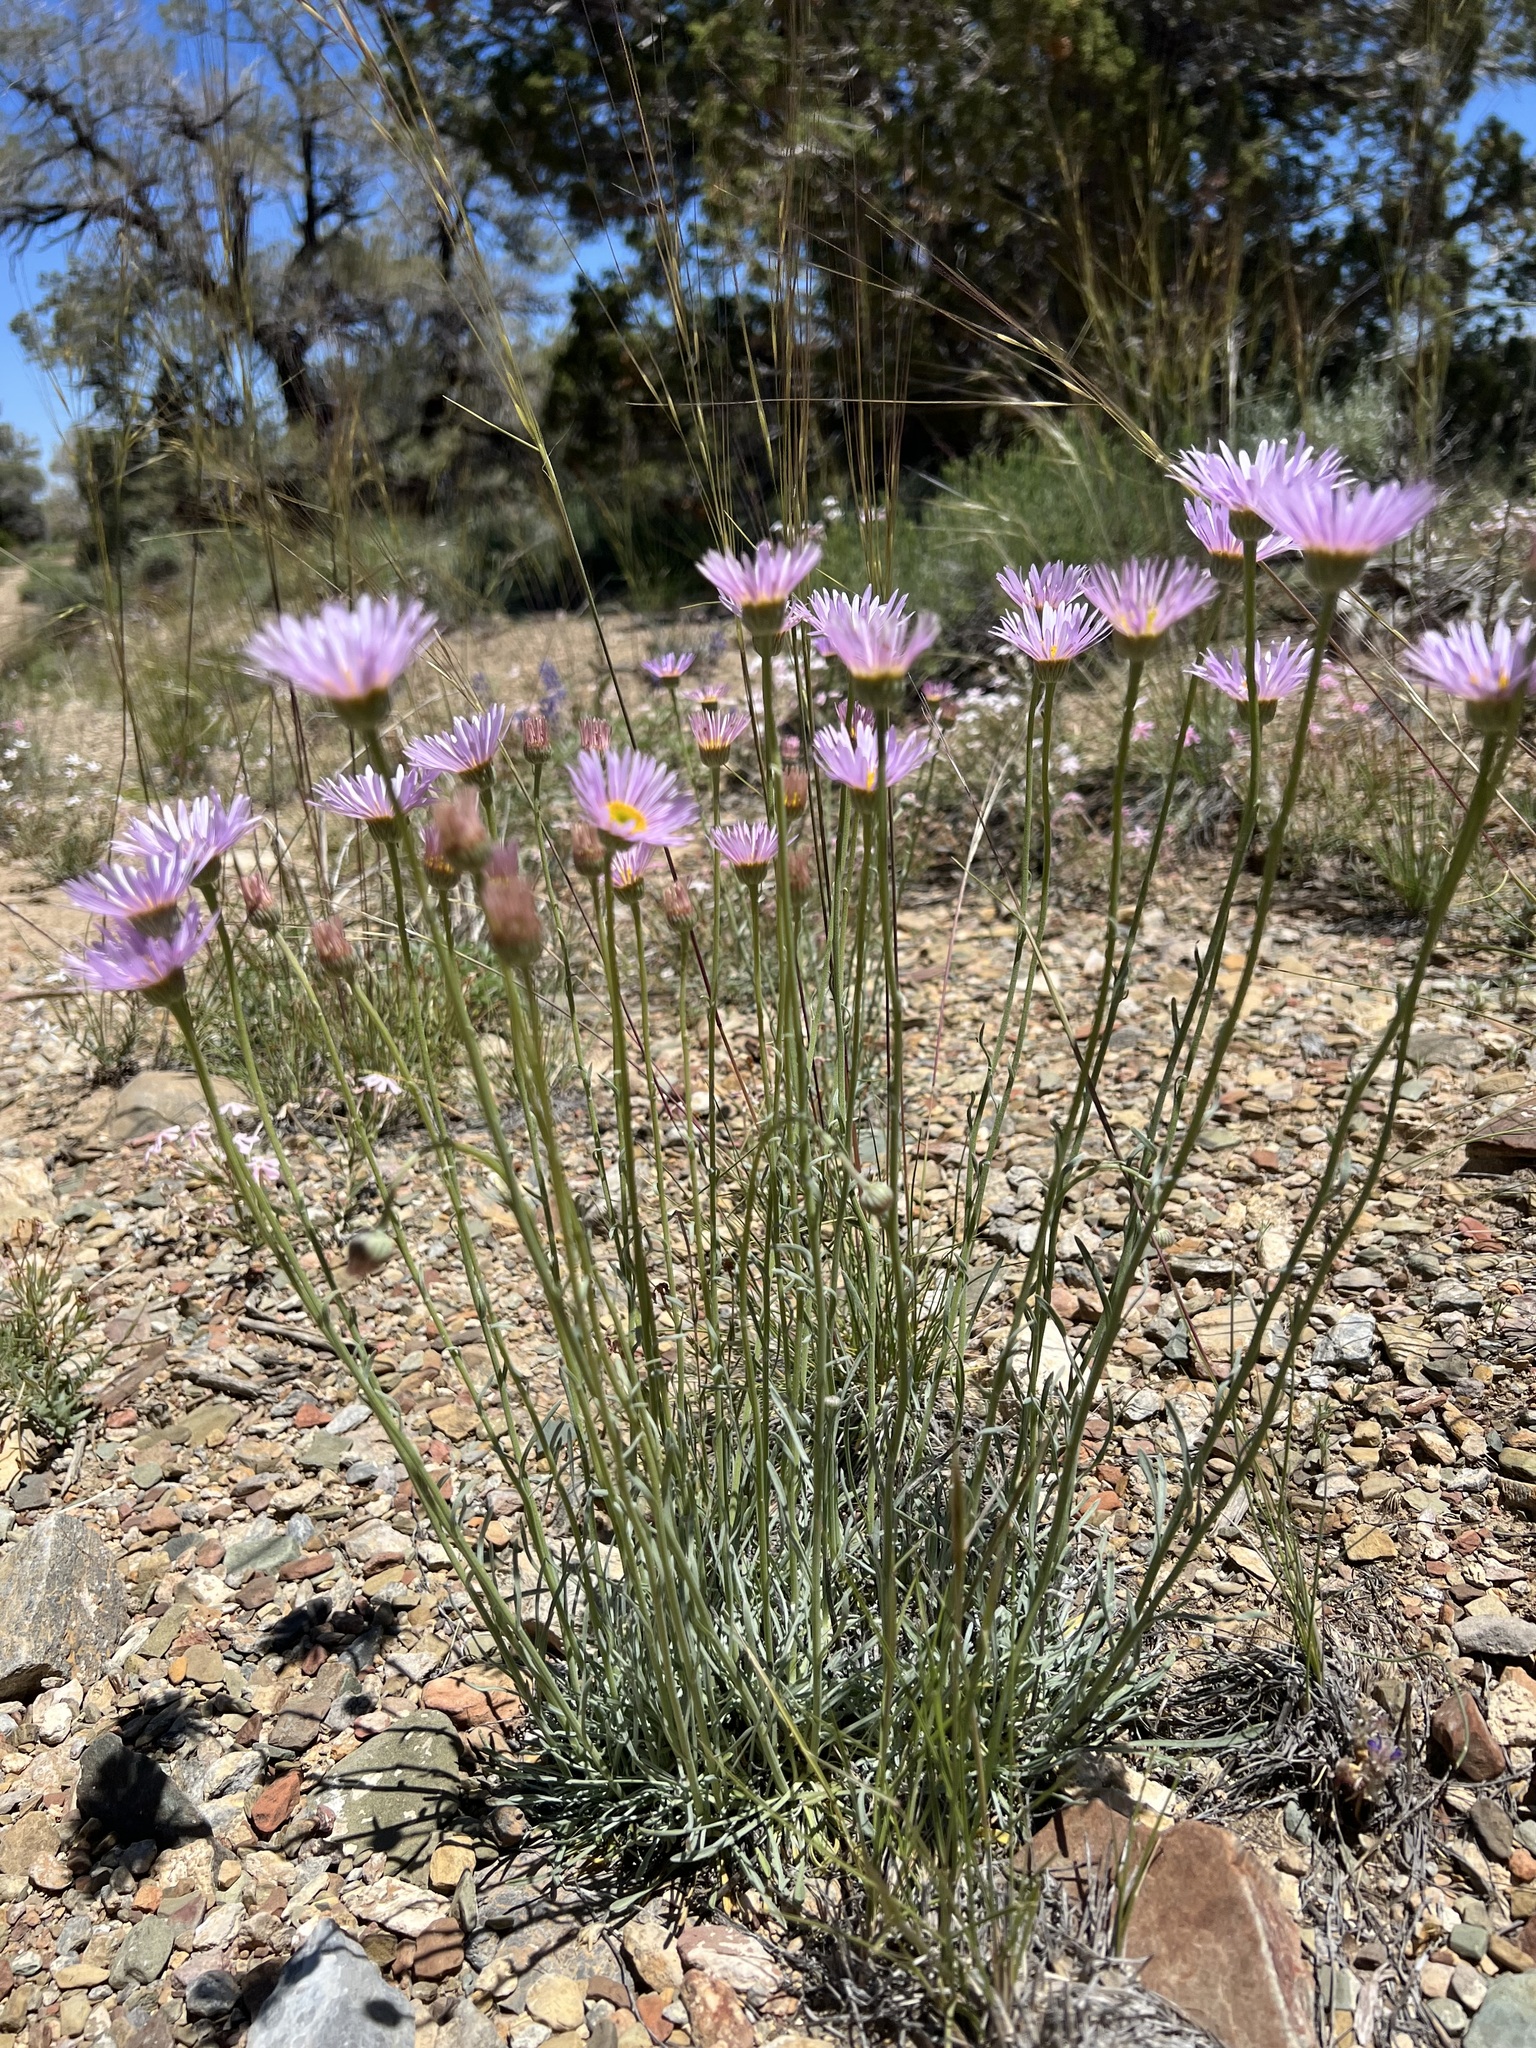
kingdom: Plantae
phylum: Tracheophyta
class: Magnoliopsida
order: Asterales
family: Asteraceae
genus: Erigeron
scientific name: Erigeron argentatus
